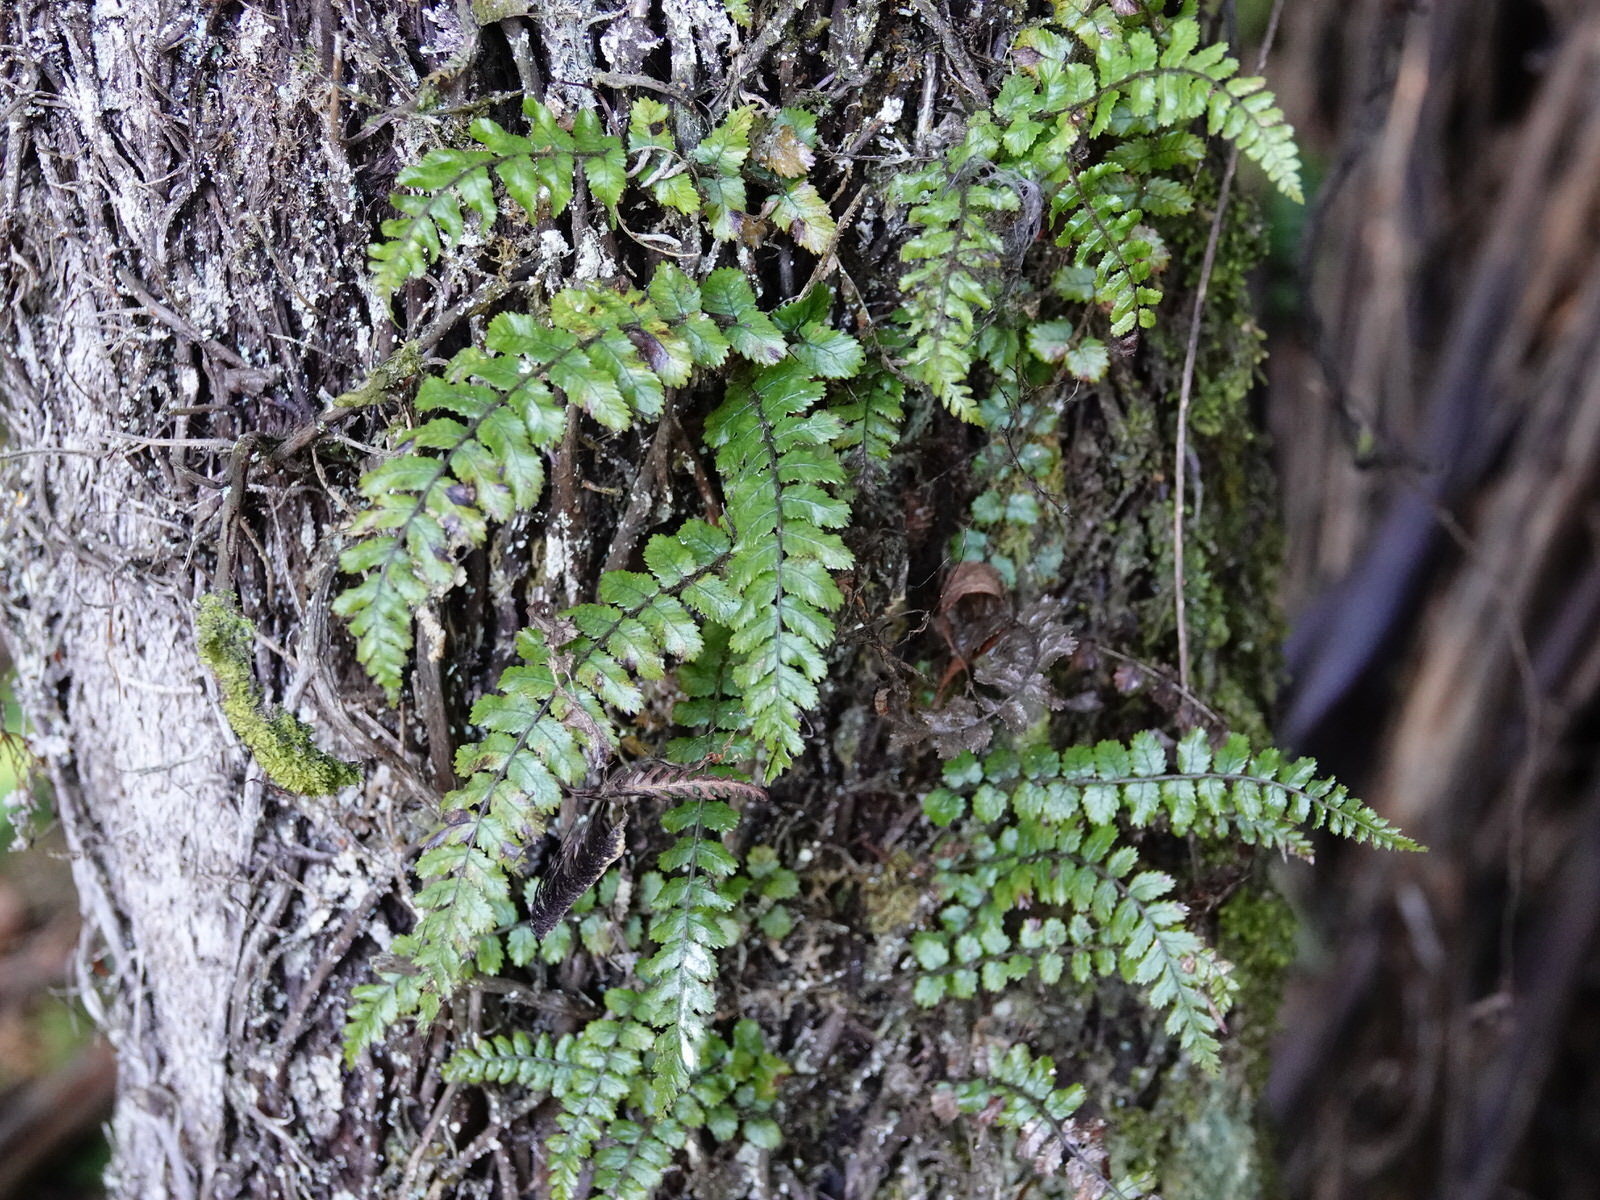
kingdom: Plantae
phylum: Tracheophyta
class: Polypodiopsida
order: Polypodiales
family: Blechnaceae
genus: Icarus
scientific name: Icarus filiformis
